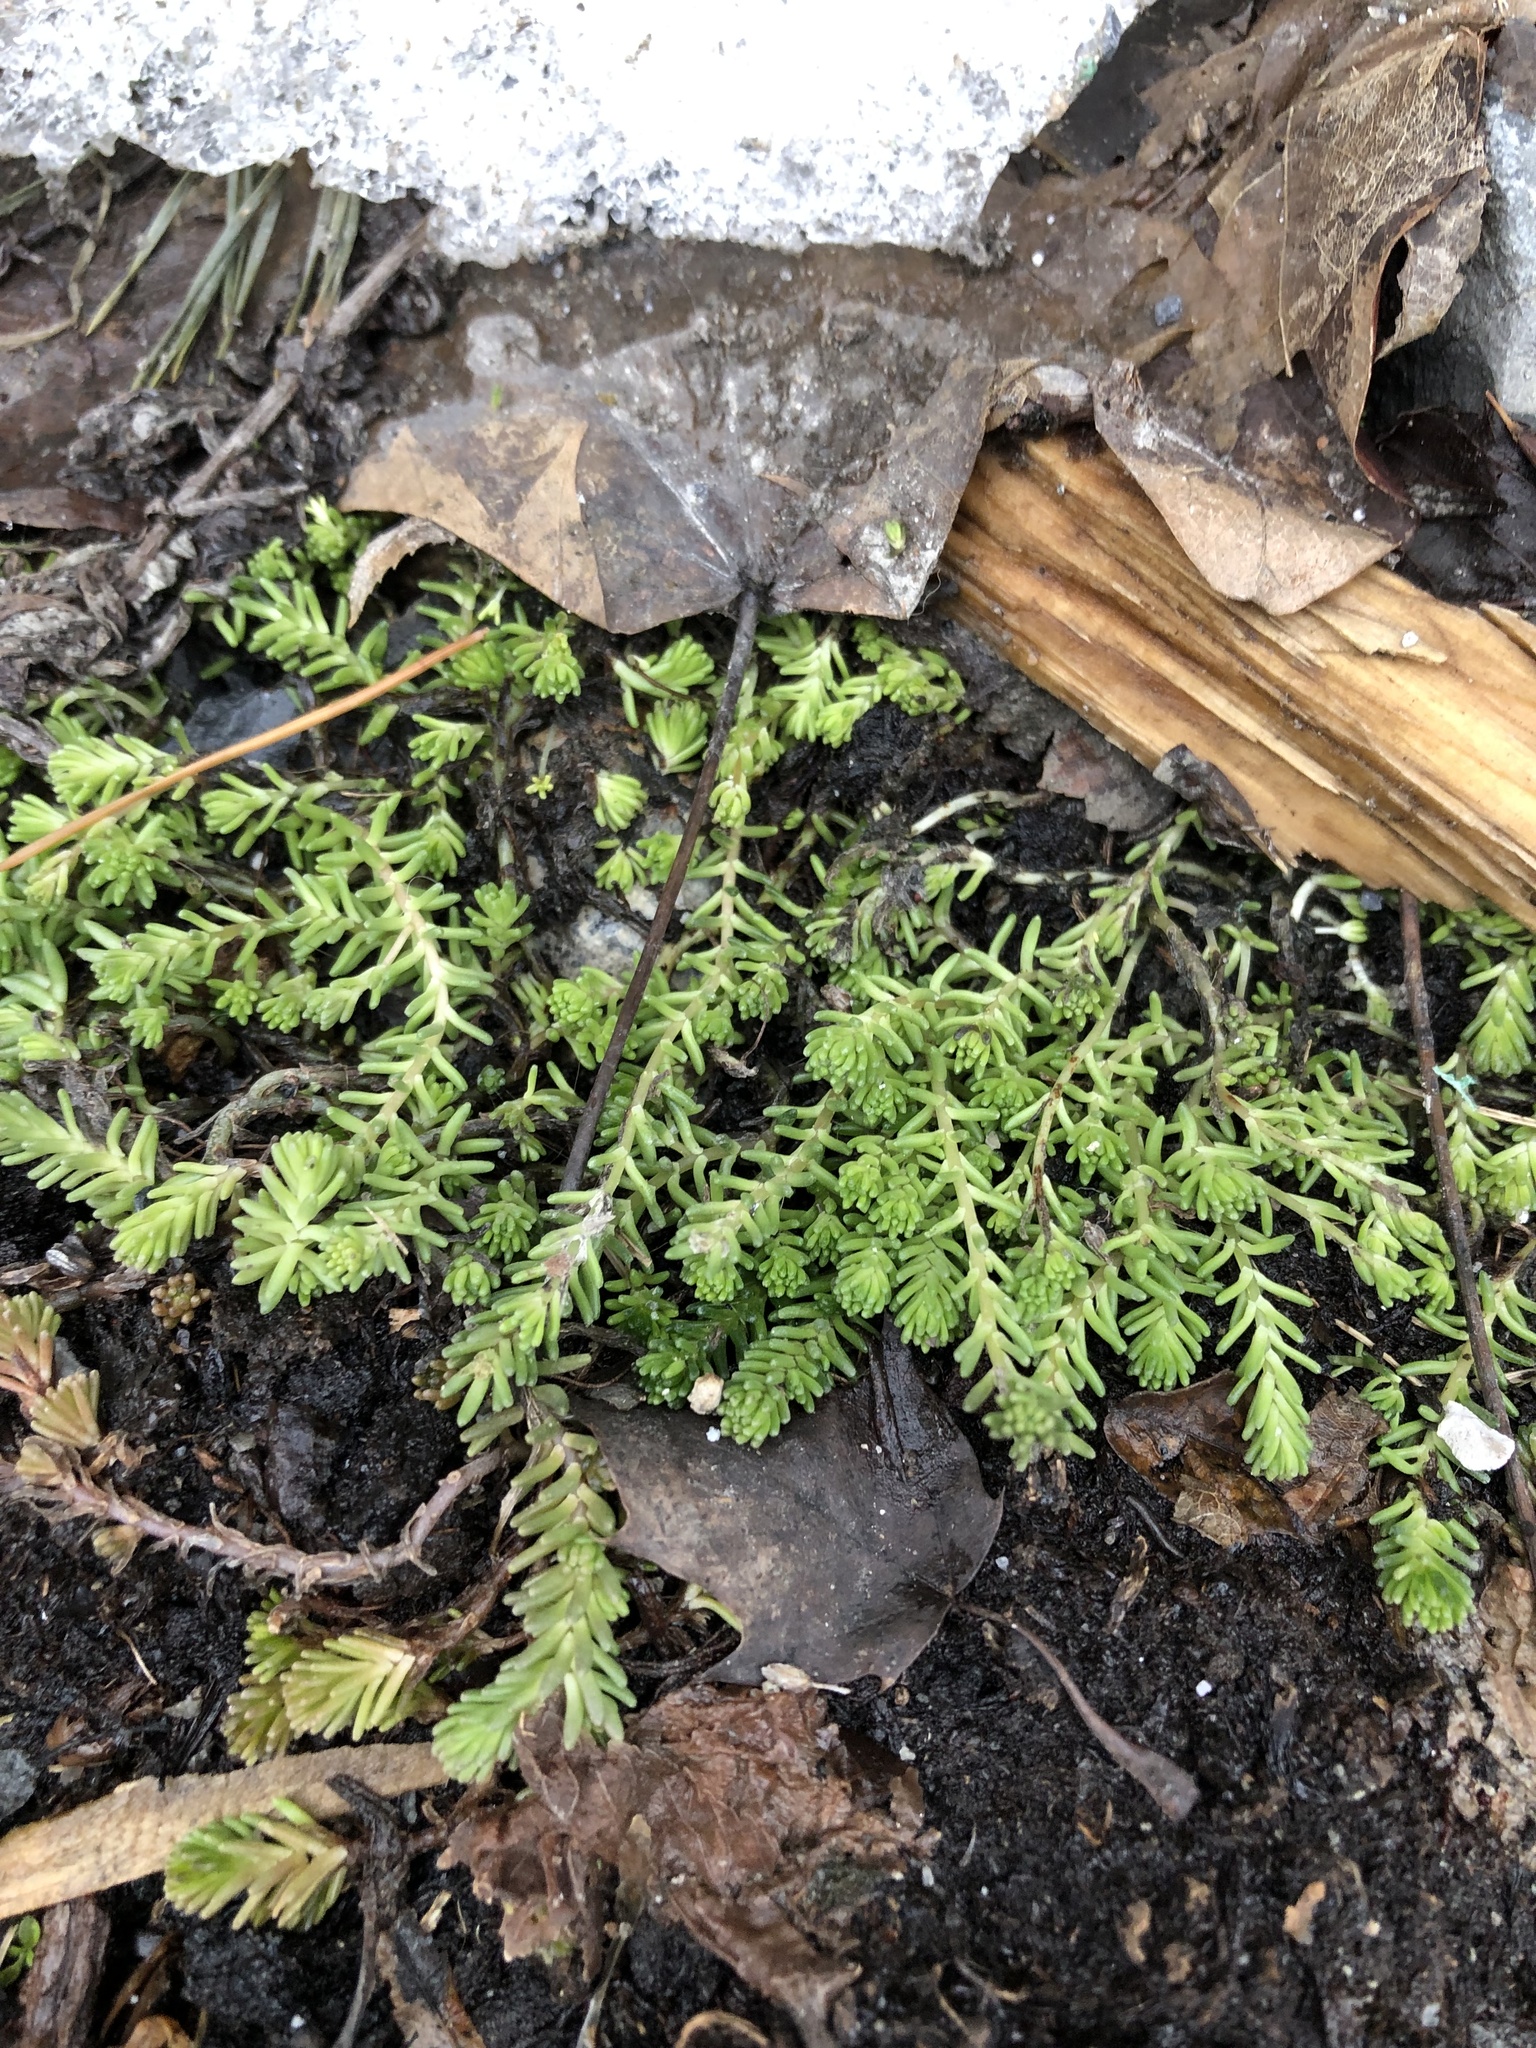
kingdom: Plantae
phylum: Tracheophyta
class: Magnoliopsida
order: Saxifragales
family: Crassulaceae
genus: Sedum
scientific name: Sedum sexangulare
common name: Tasteless stonecrop
